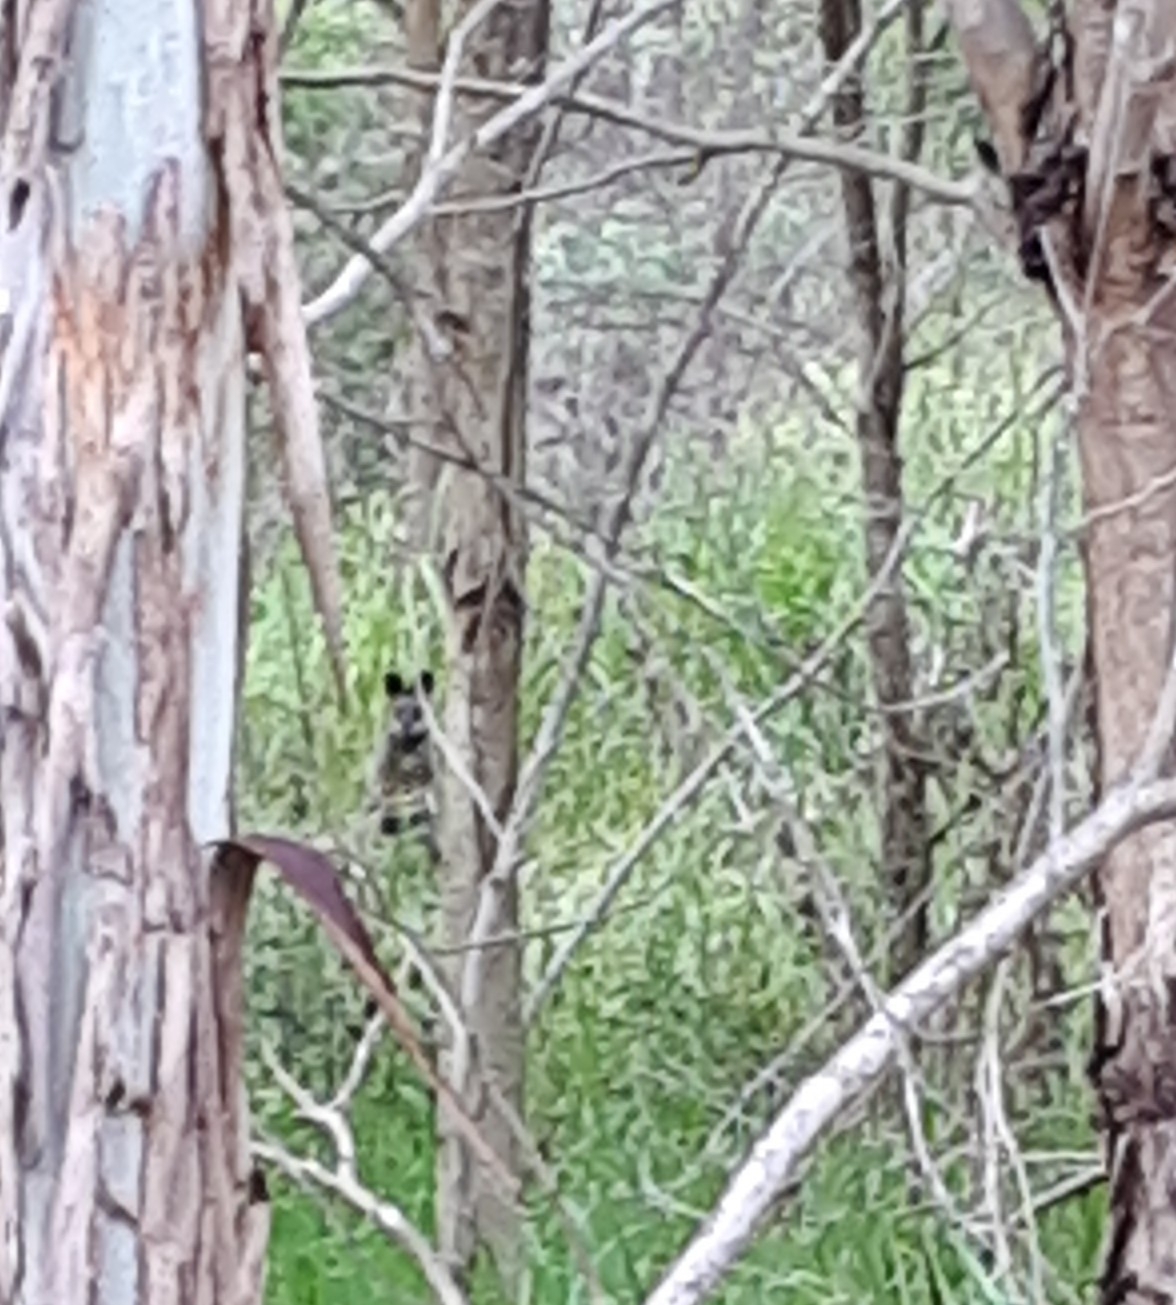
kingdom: Animalia
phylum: Chordata
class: Mammalia
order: Diprotodontia
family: Macropodidae
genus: Wallabia
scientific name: Wallabia bicolor
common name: Swamp wallaby
